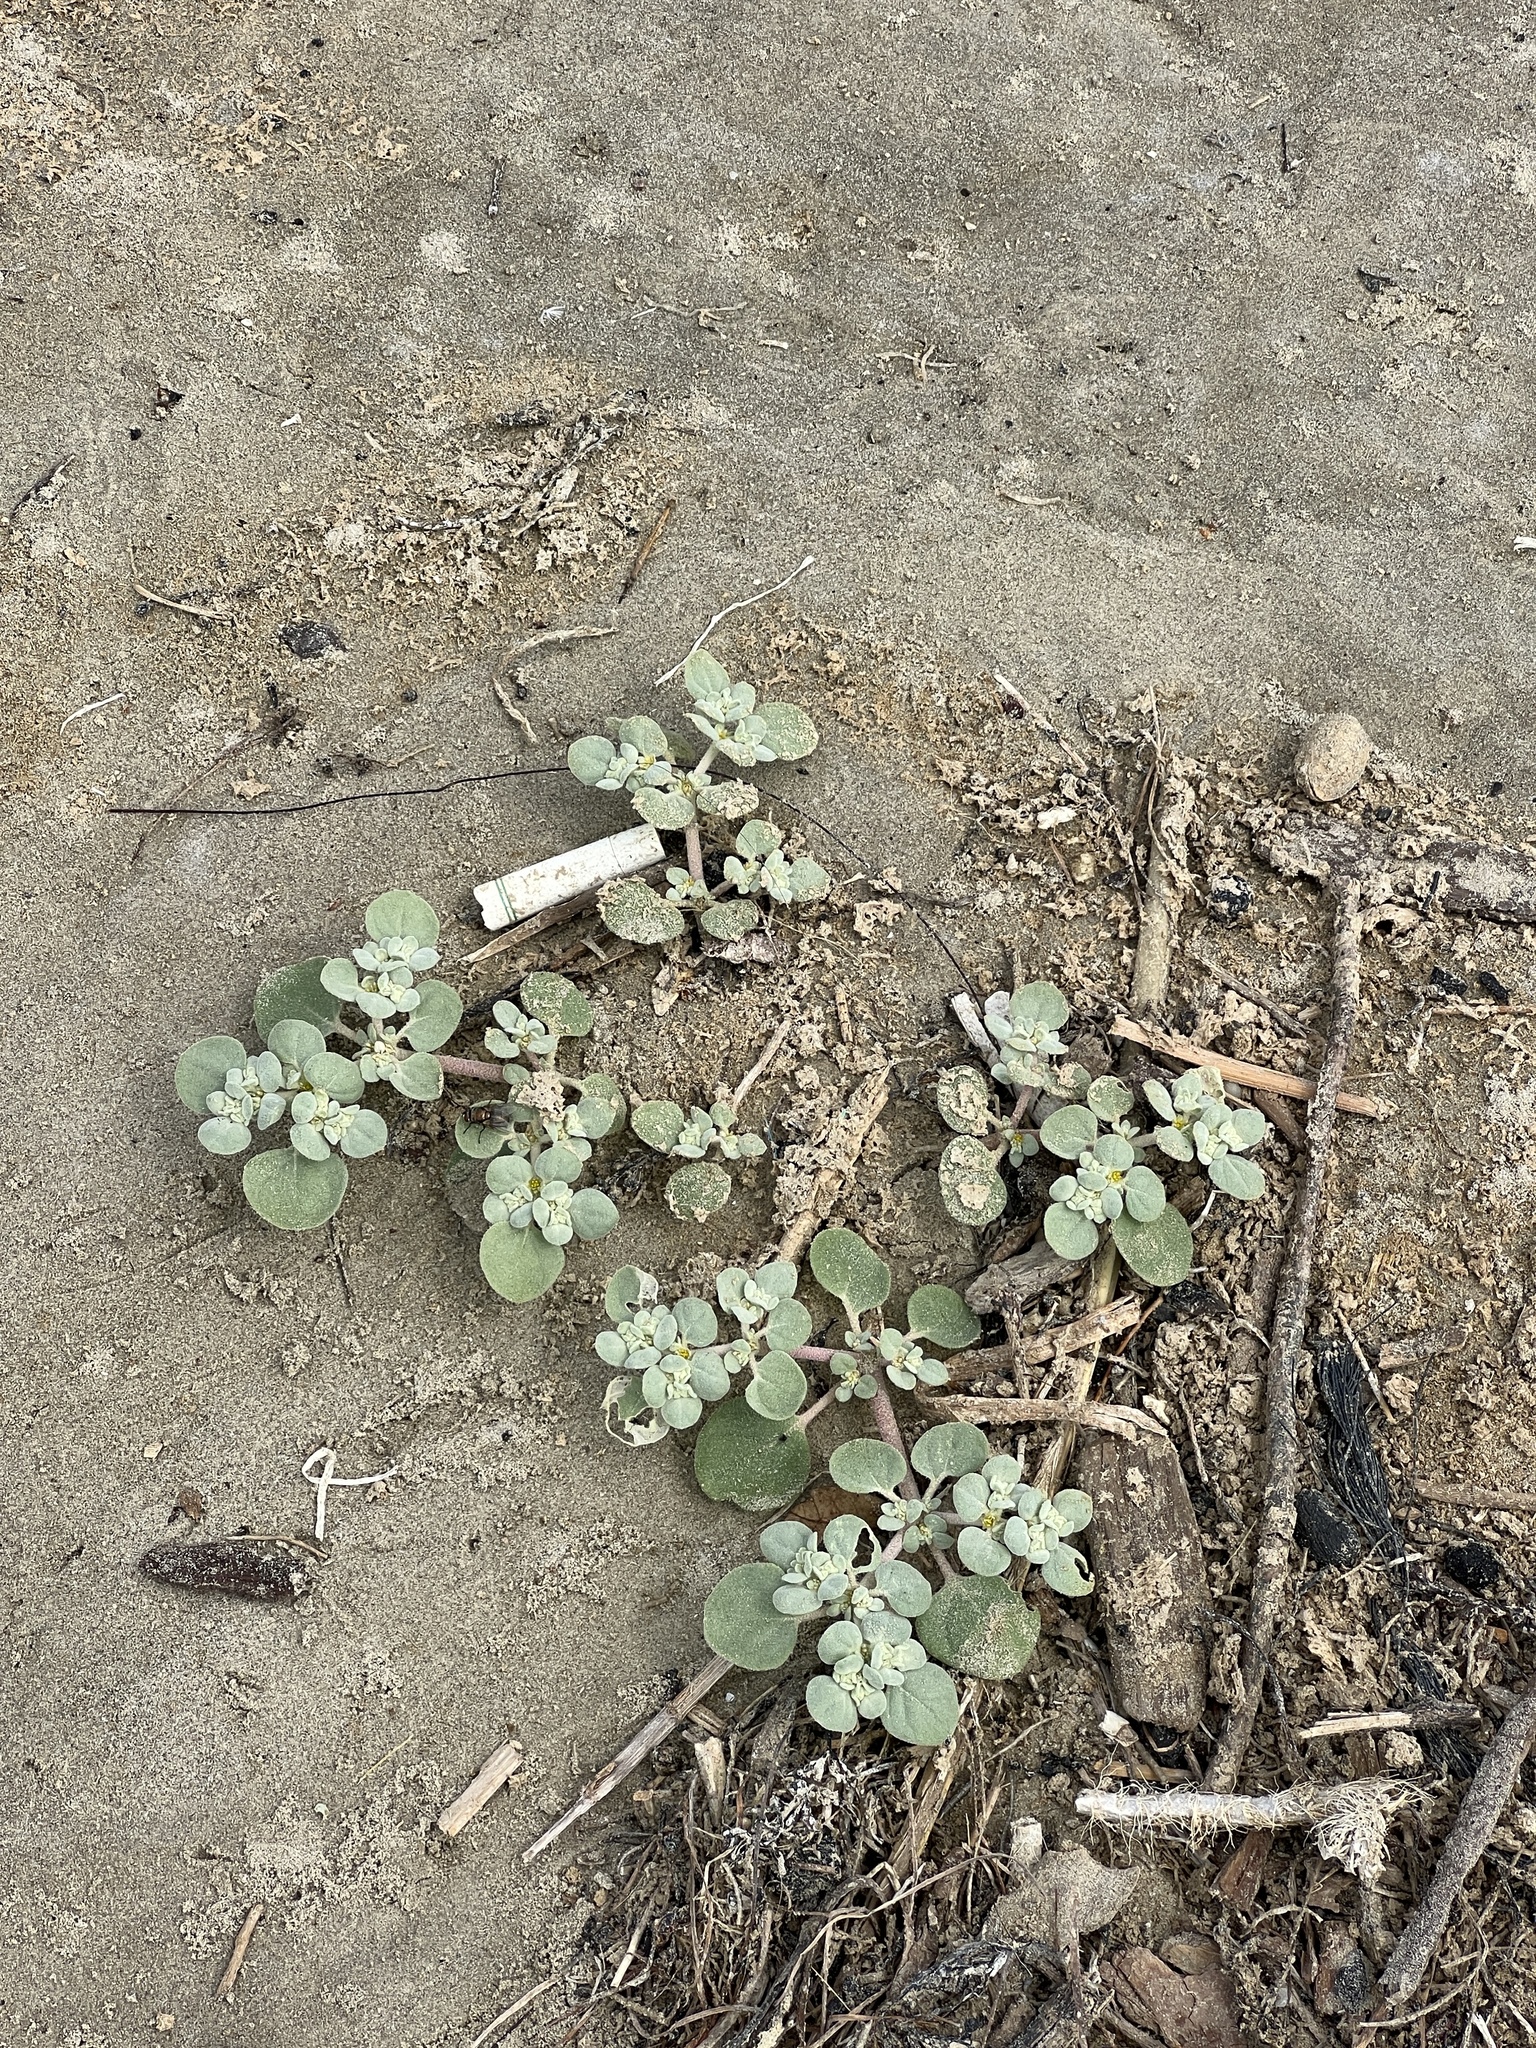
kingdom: Plantae
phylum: Tracheophyta
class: Magnoliopsida
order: Caryophyllales
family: Amaranthaceae
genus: Tidestromia
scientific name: Tidestromia lanuginosa
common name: Woolly tidestromia
